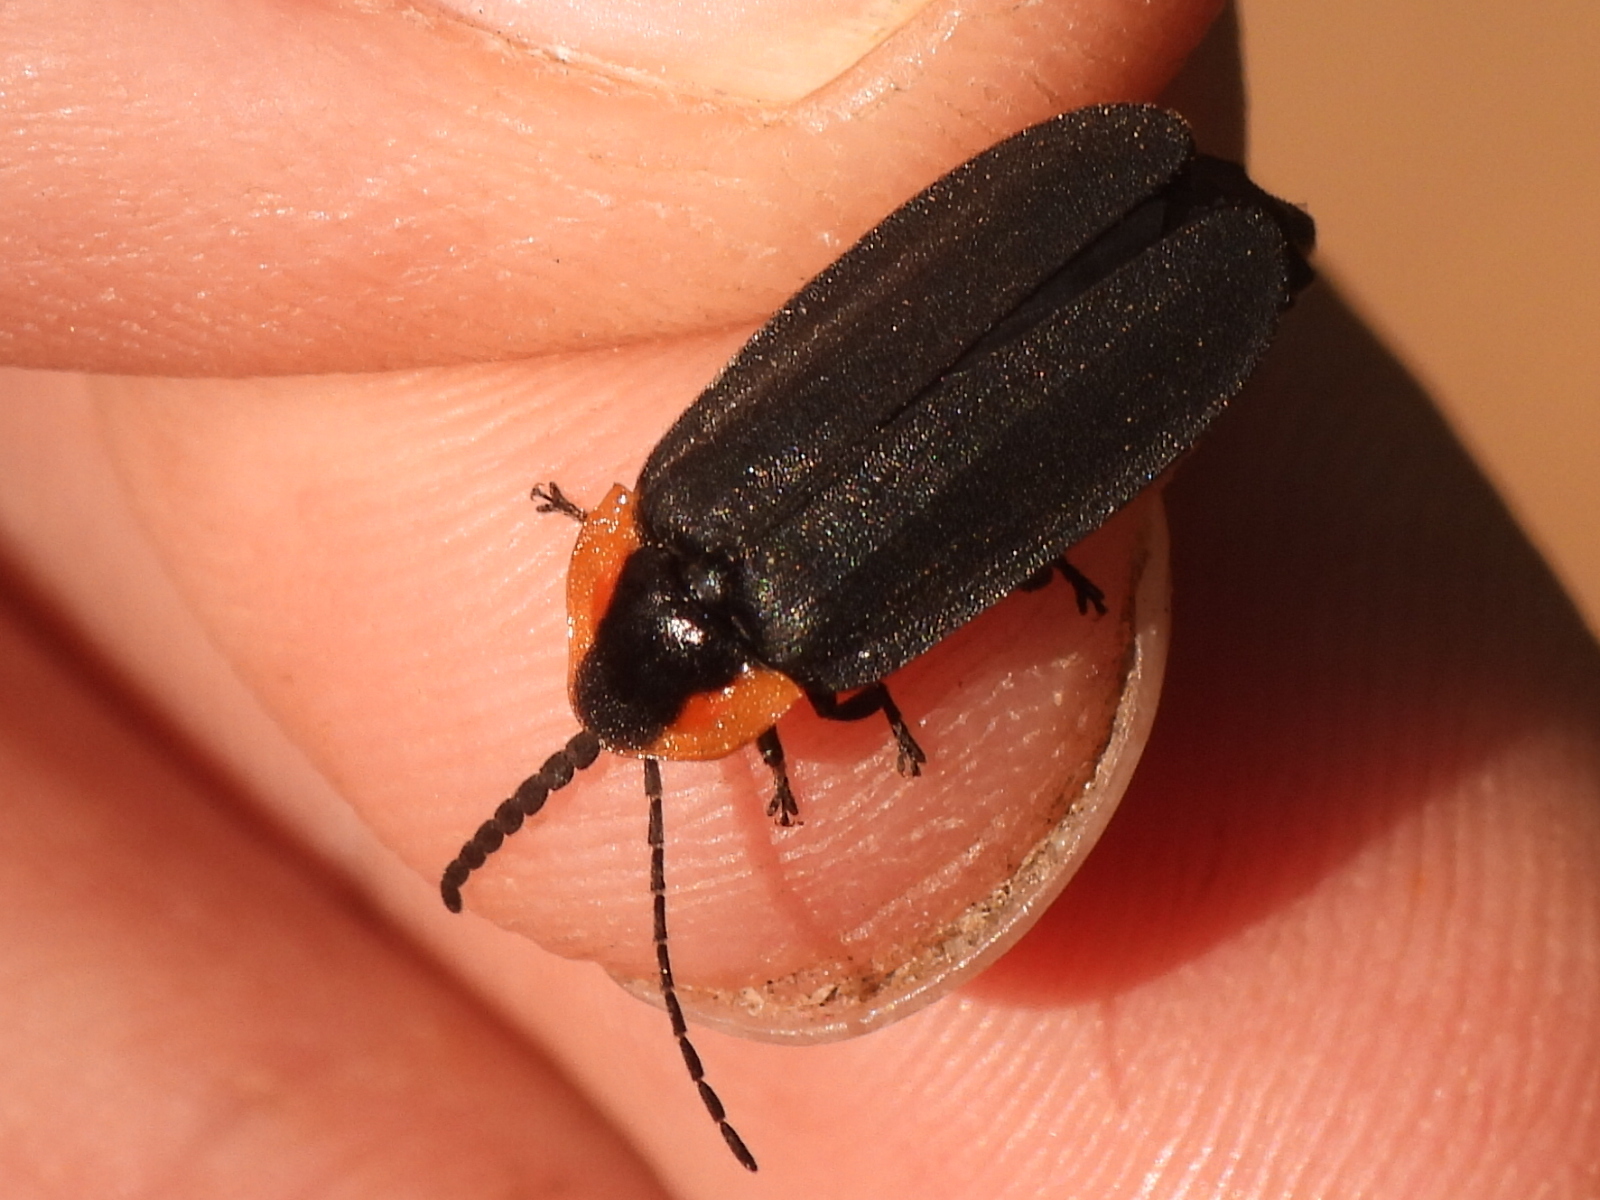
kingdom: Animalia
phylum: Arthropoda
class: Insecta
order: Coleoptera
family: Lampyridae
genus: Lucidota
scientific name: Lucidota atra
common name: Black firefly
